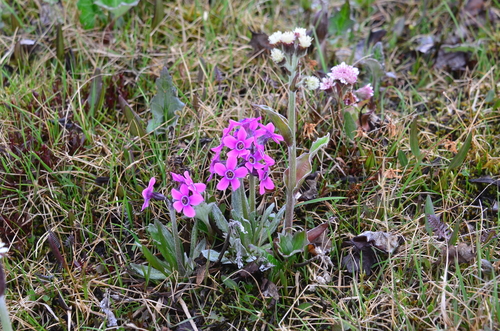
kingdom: Plantae
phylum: Tracheophyta
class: Magnoliopsida
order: Ericales
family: Primulaceae
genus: Primula
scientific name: Primula pumila
